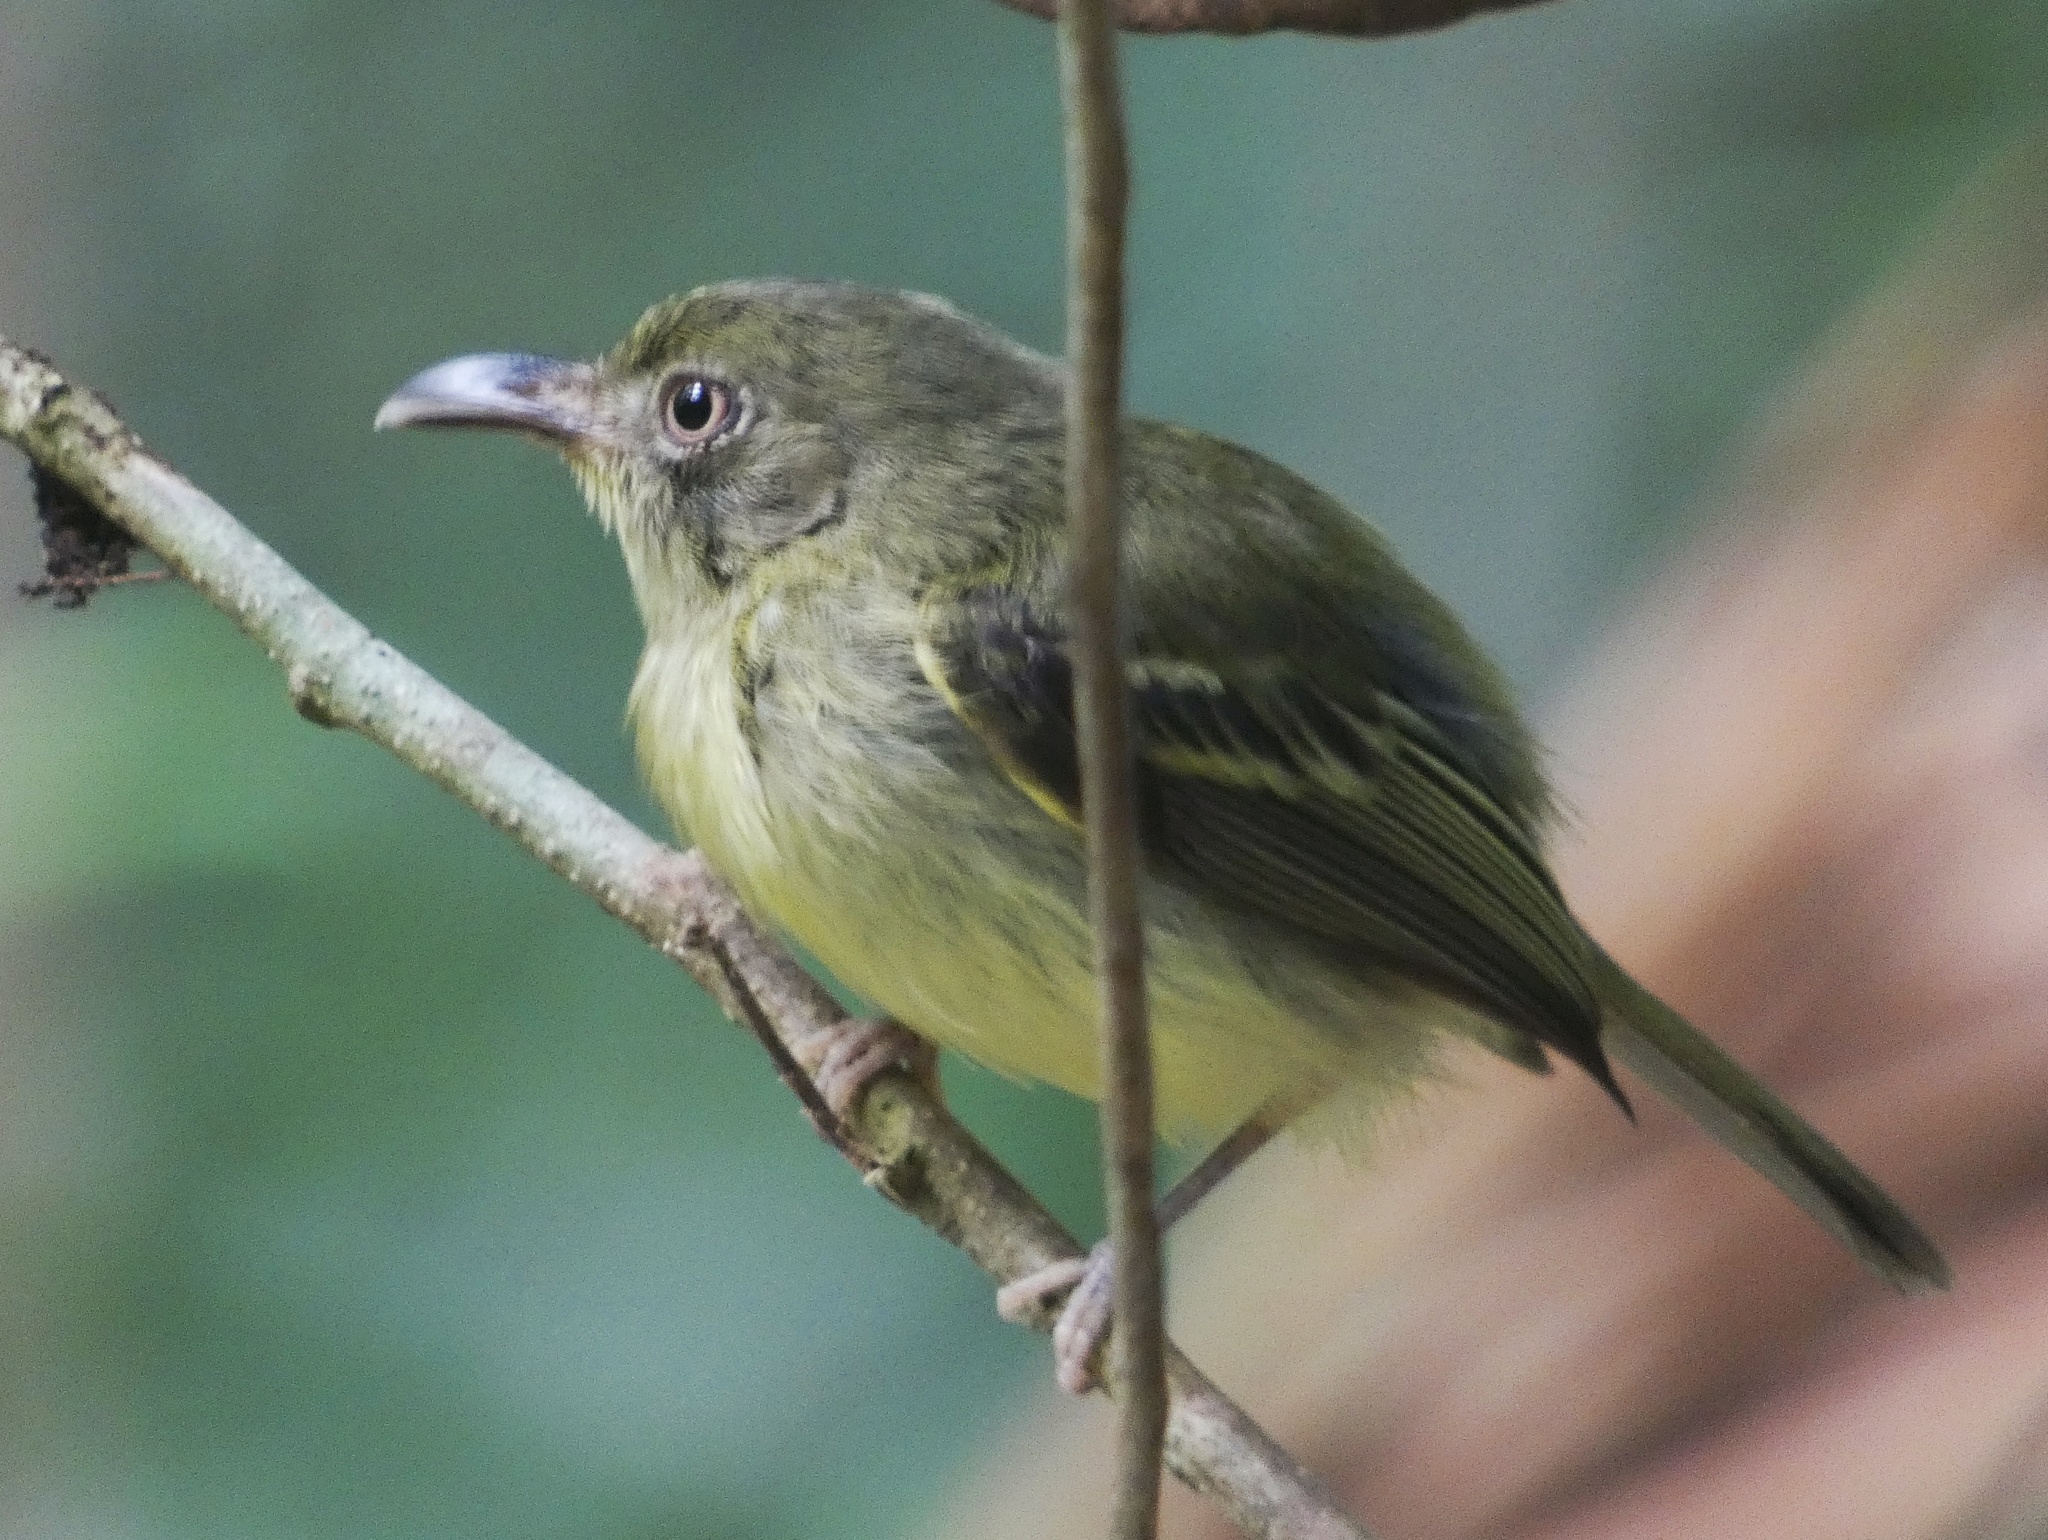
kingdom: Animalia
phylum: Chordata
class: Aves
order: Passeriformes
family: Tyrannidae
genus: Oncostoma
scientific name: Oncostoma olivaceum
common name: Southern bentbill
